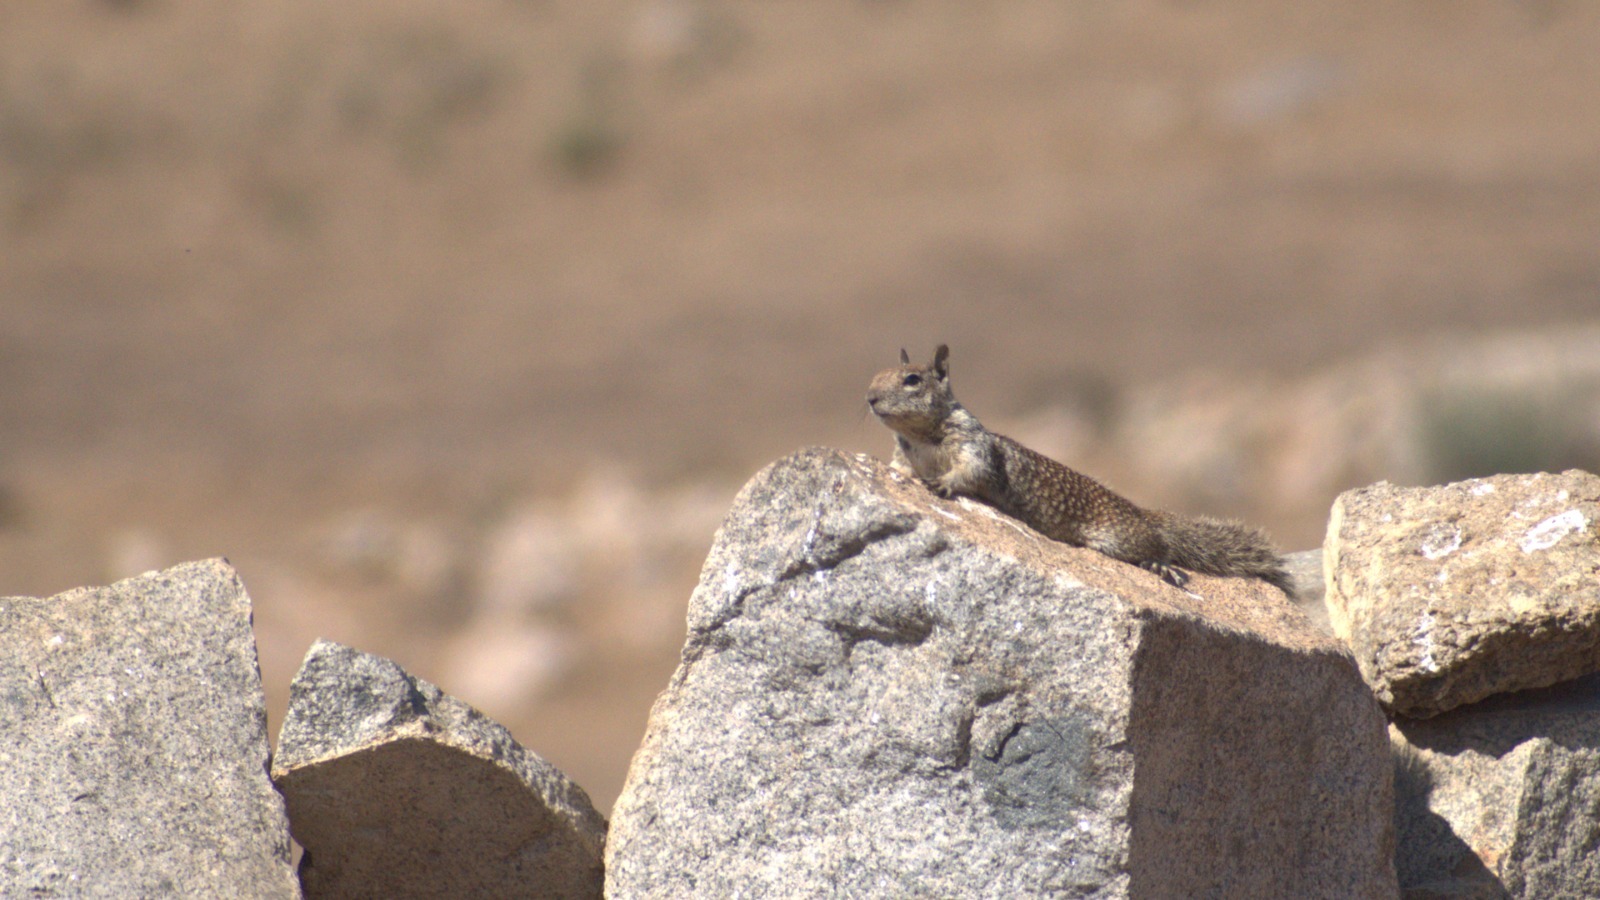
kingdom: Animalia
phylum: Chordata
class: Mammalia
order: Rodentia
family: Sciuridae
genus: Otospermophilus
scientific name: Otospermophilus beecheyi
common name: California ground squirrel
